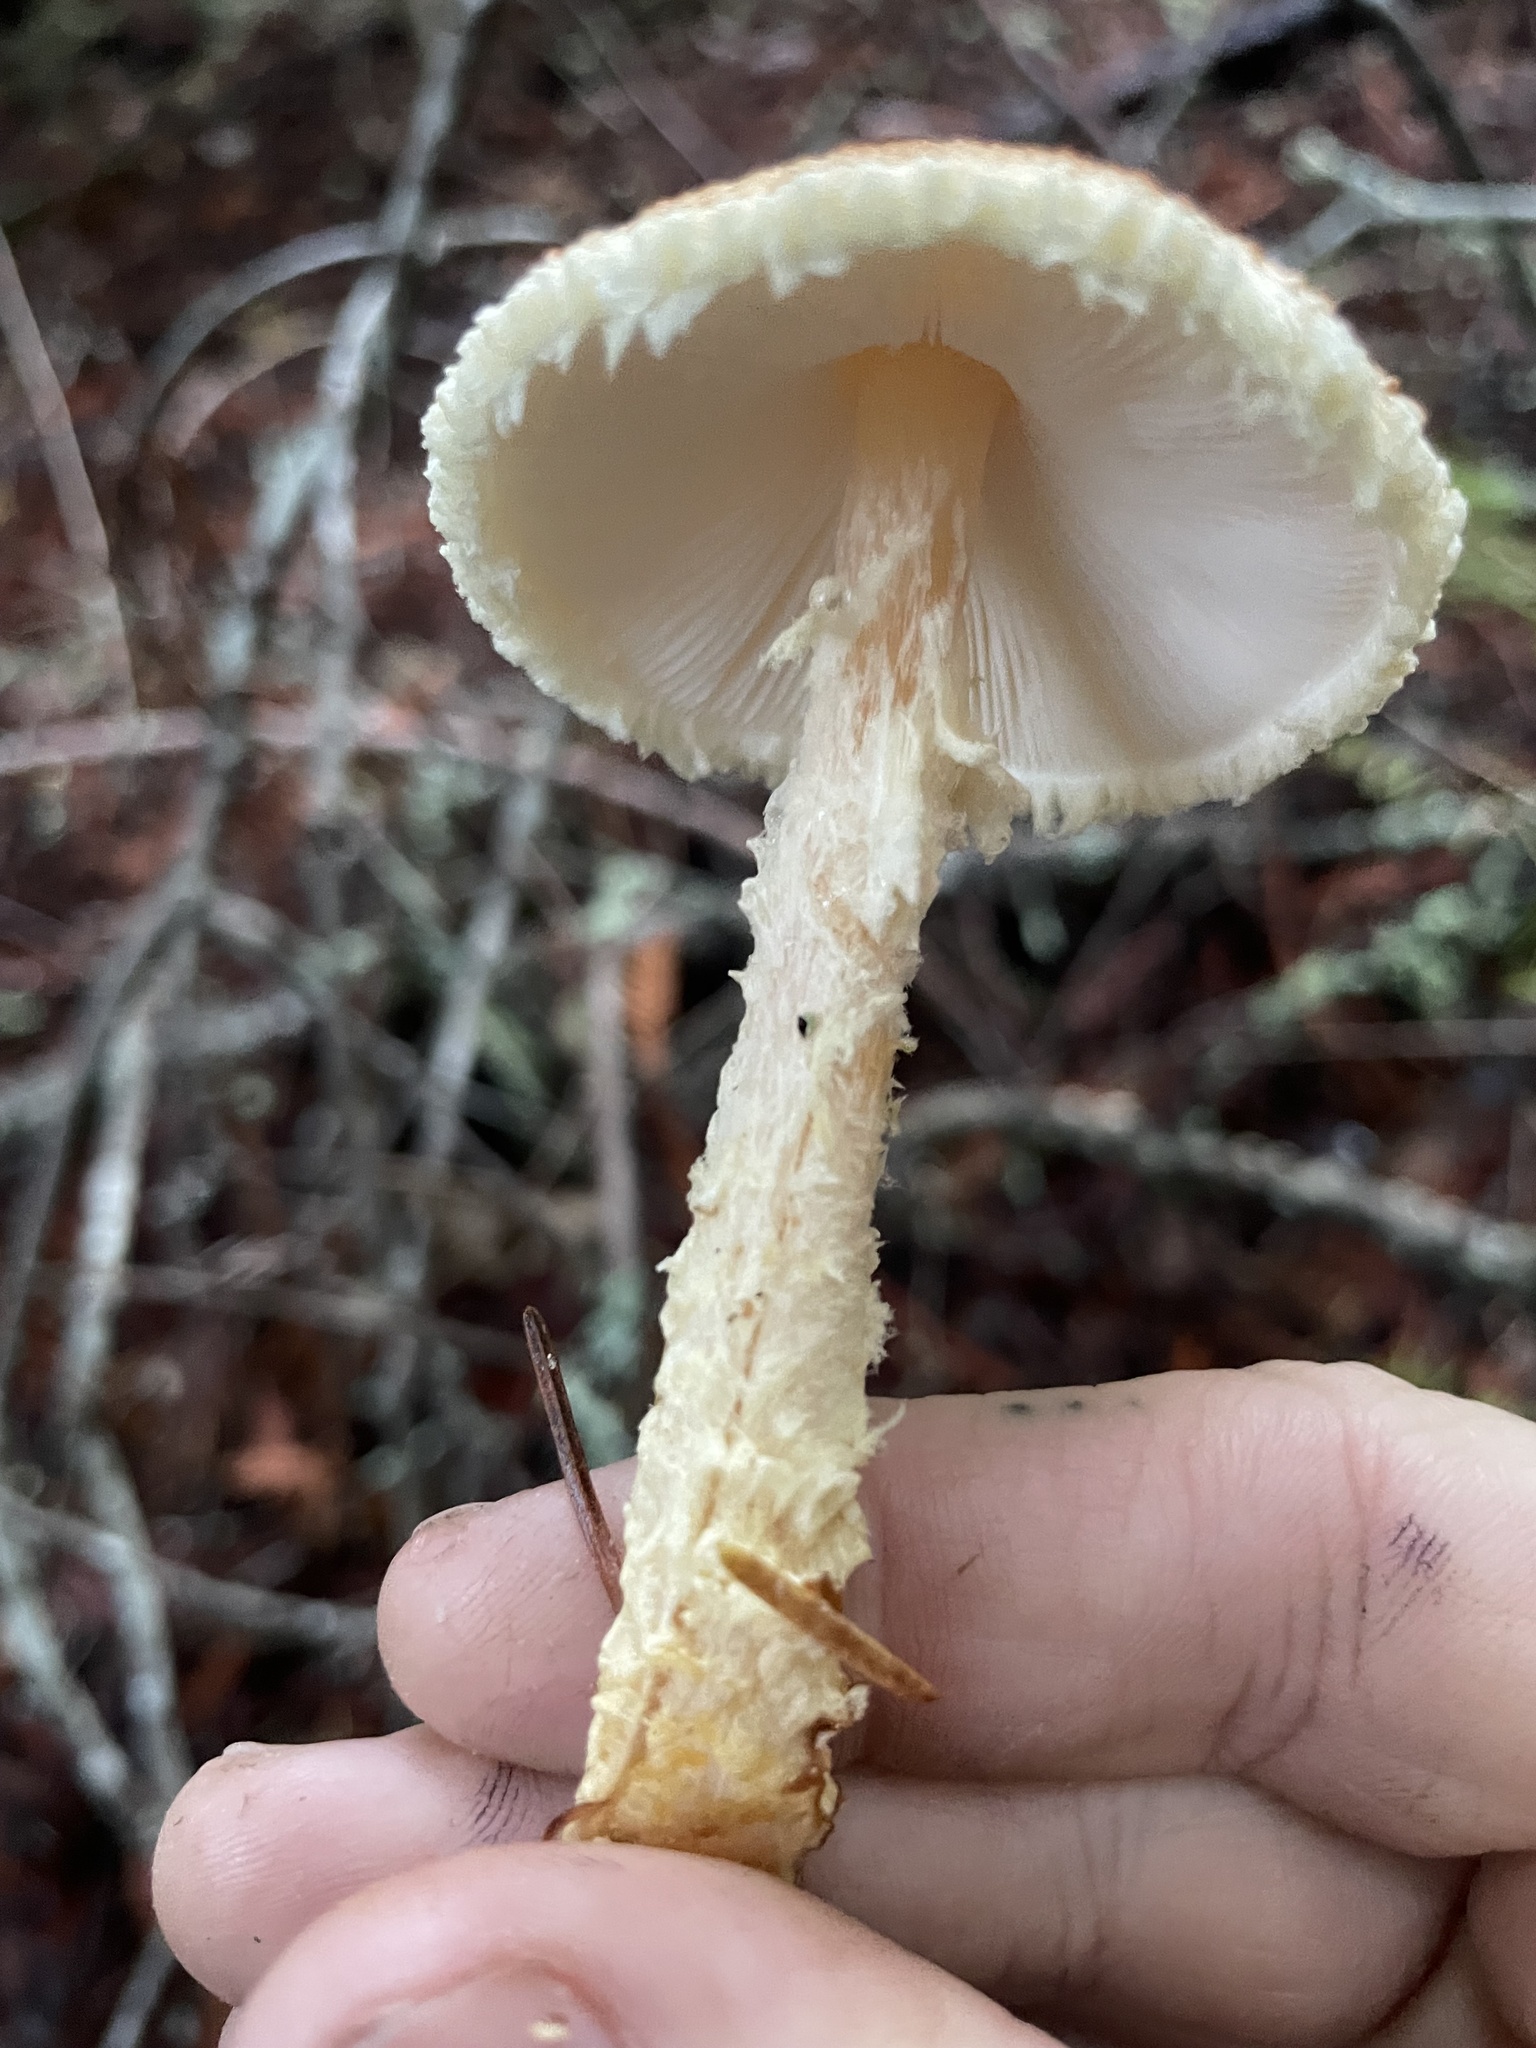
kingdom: Fungi
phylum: Basidiomycota
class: Agaricomycetes
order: Agaricales
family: Agaricaceae
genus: Lepiota
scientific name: Lepiota magnispora
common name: Yellowfoot dapperling
